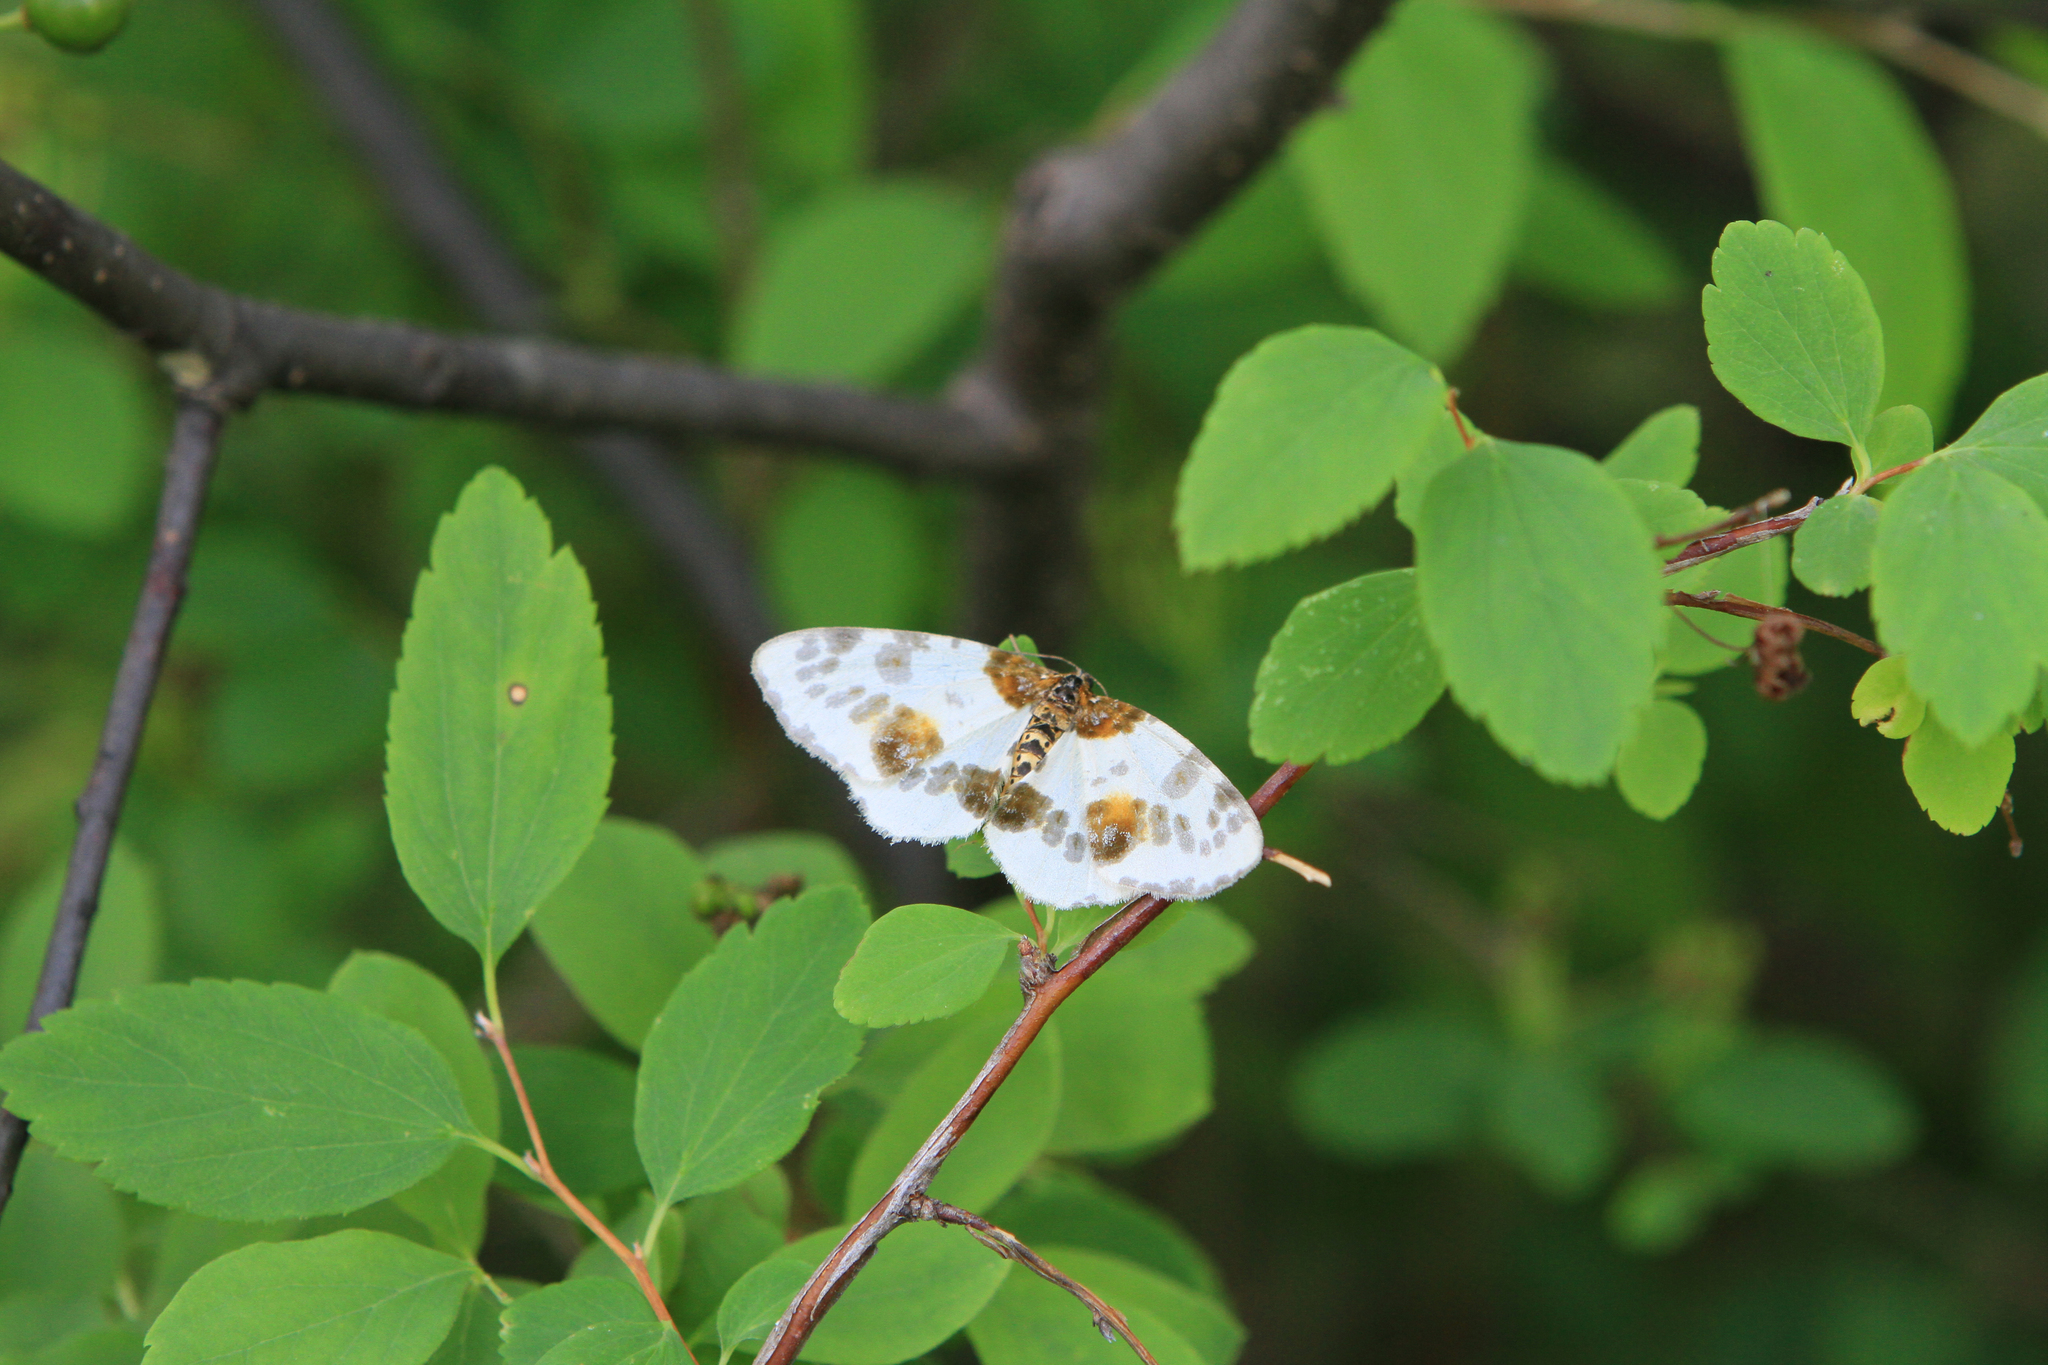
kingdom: Animalia
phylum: Arthropoda
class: Insecta
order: Lepidoptera
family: Geometridae
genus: Abraxas
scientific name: Abraxas sylvata
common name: Clouded magpie
